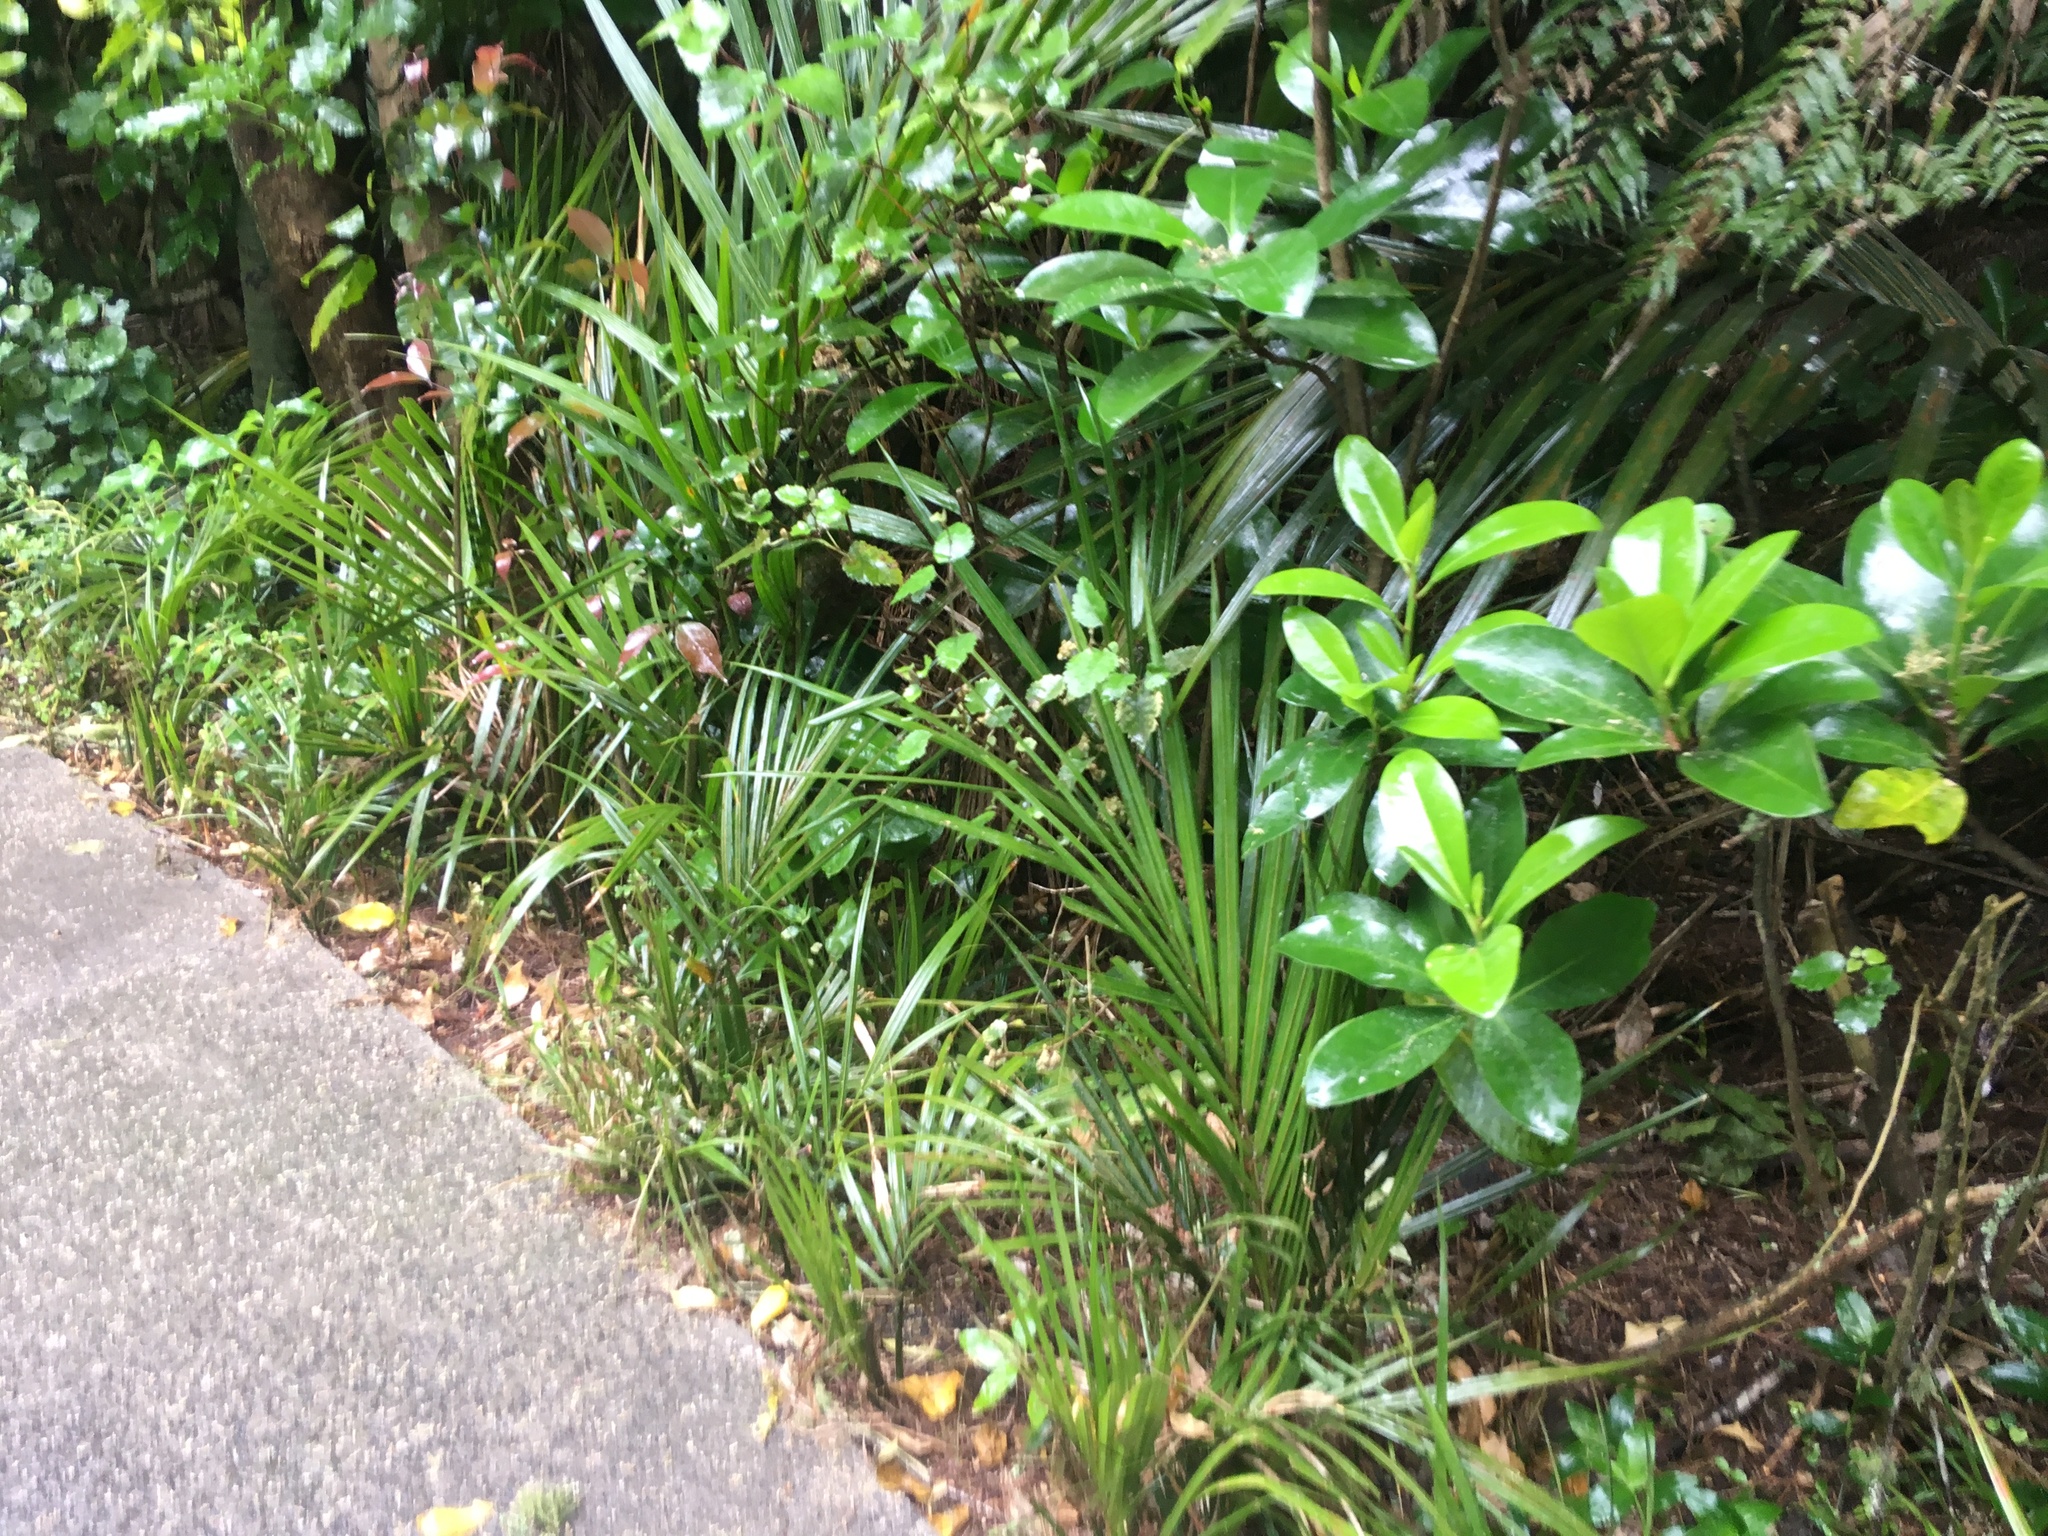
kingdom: Plantae
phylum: Tracheophyta
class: Liliopsida
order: Arecales
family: Arecaceae
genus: Rhopalostylis
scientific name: Rhopalostylis sapida
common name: Feather-duster palm
